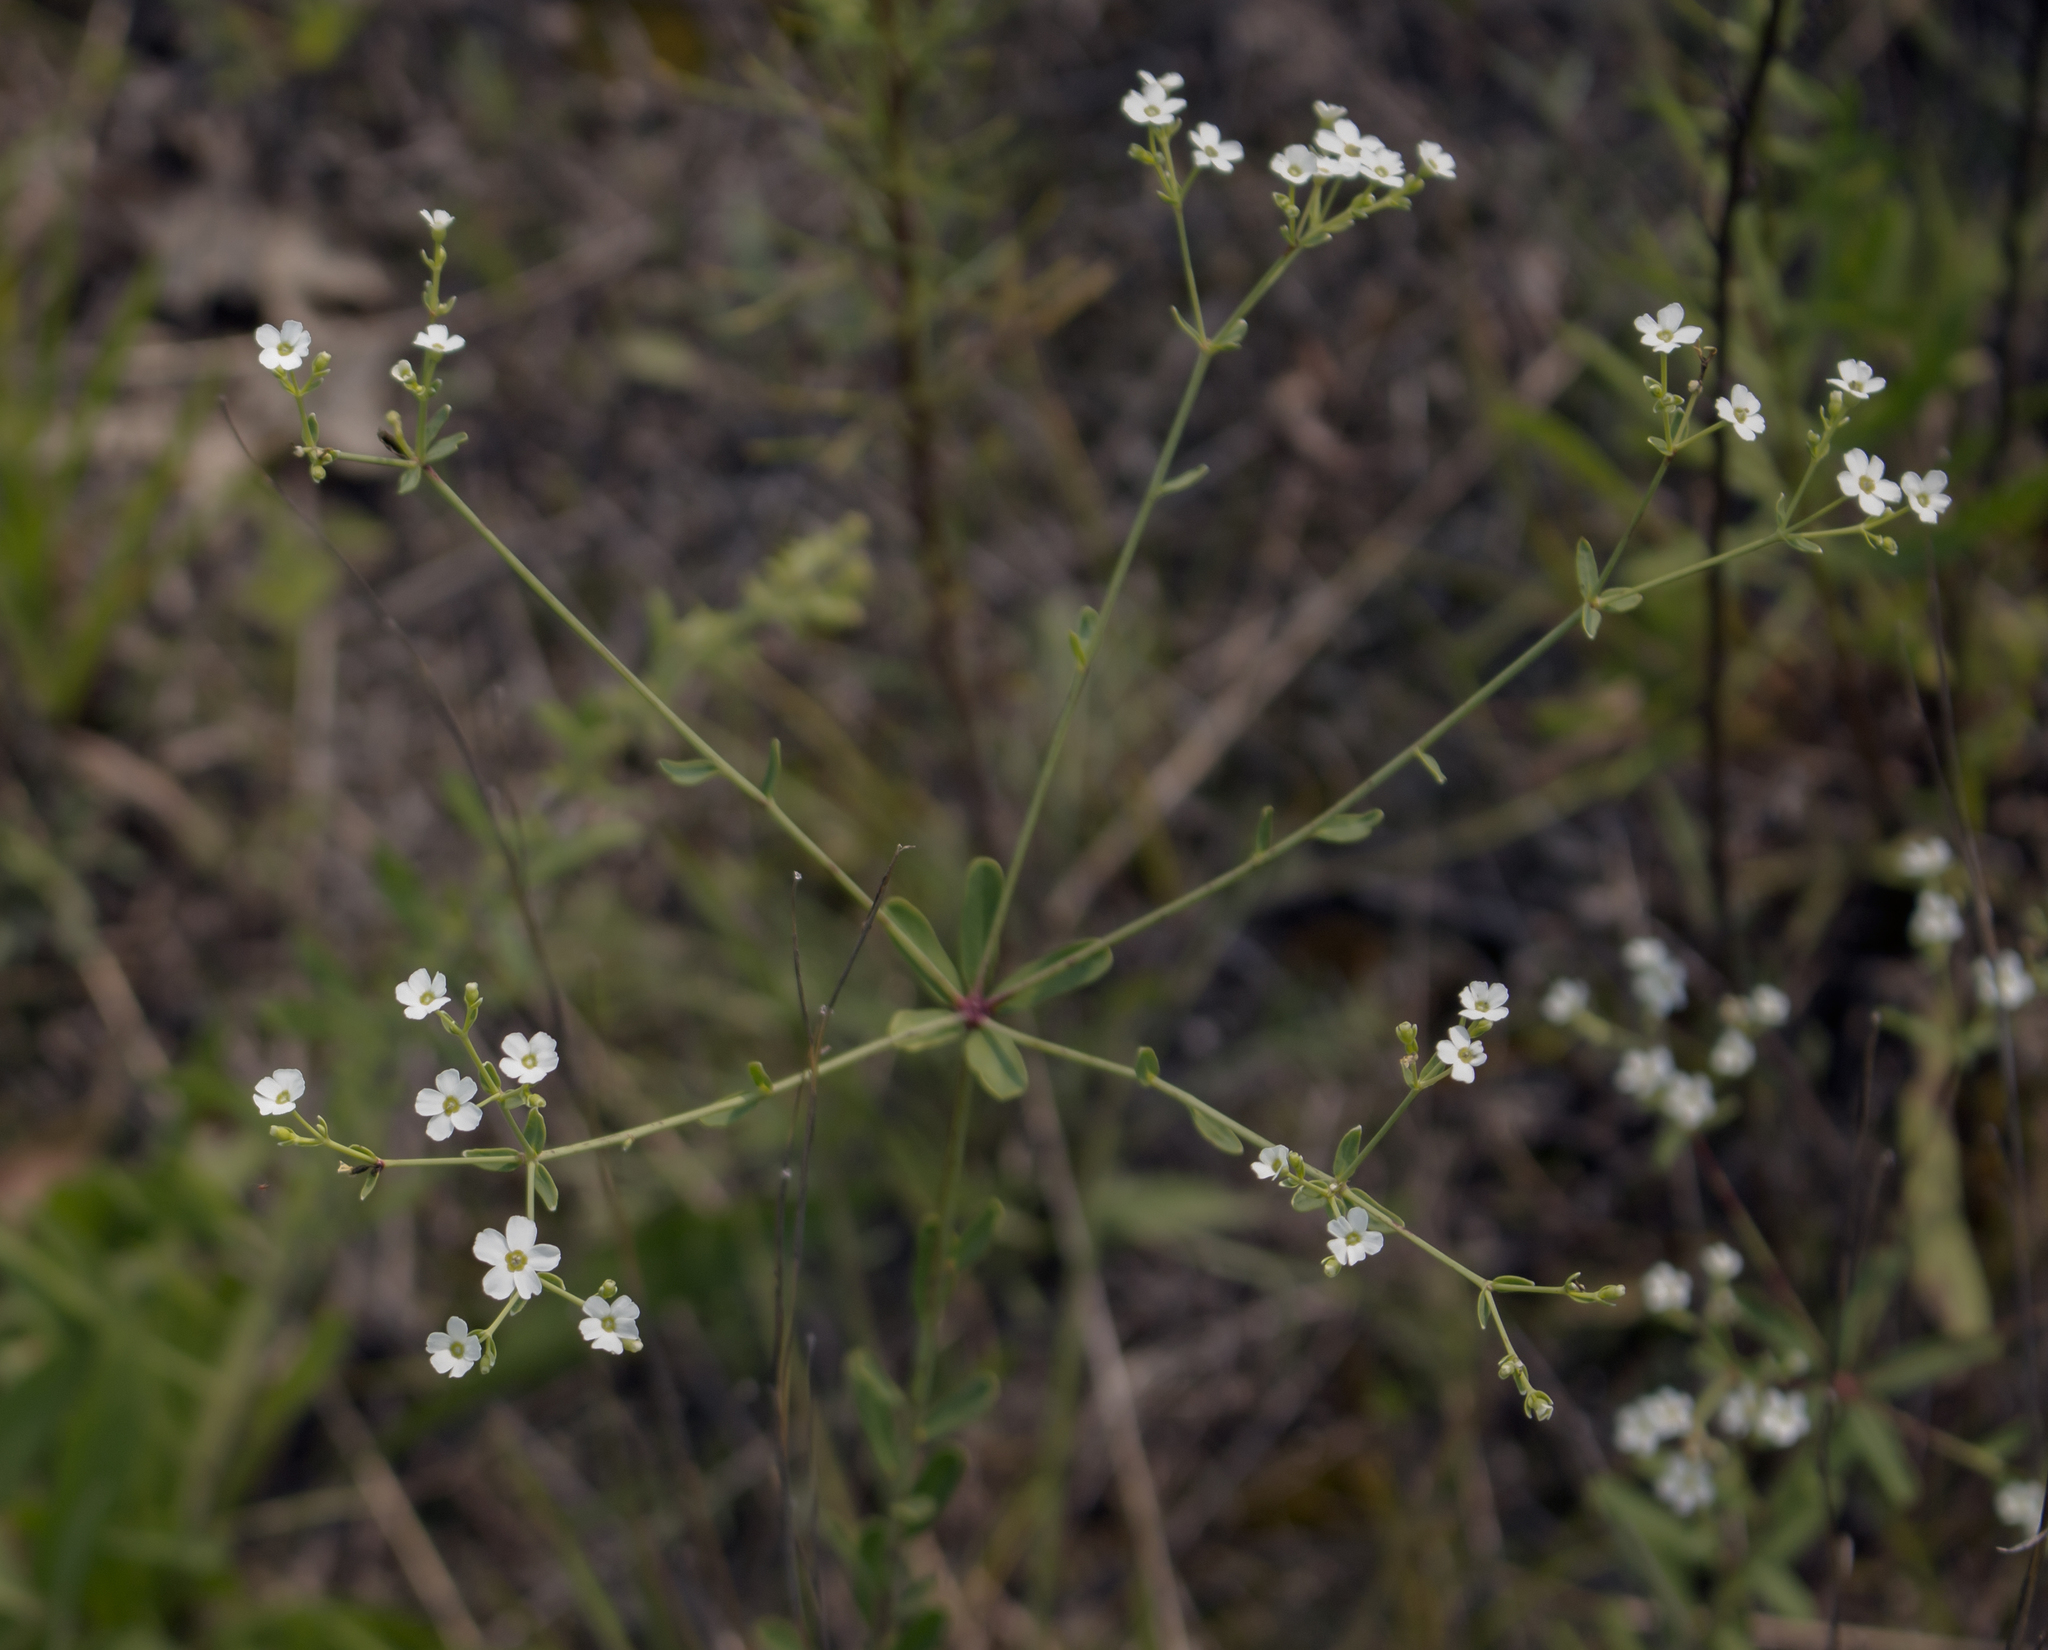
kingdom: Plantae
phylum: Tracheophyta
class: Magnoliopsida
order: Malpighiales
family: Euphorbiaceae
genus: Euphorbia
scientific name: Euphorbia corollata
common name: Flowering spurge
